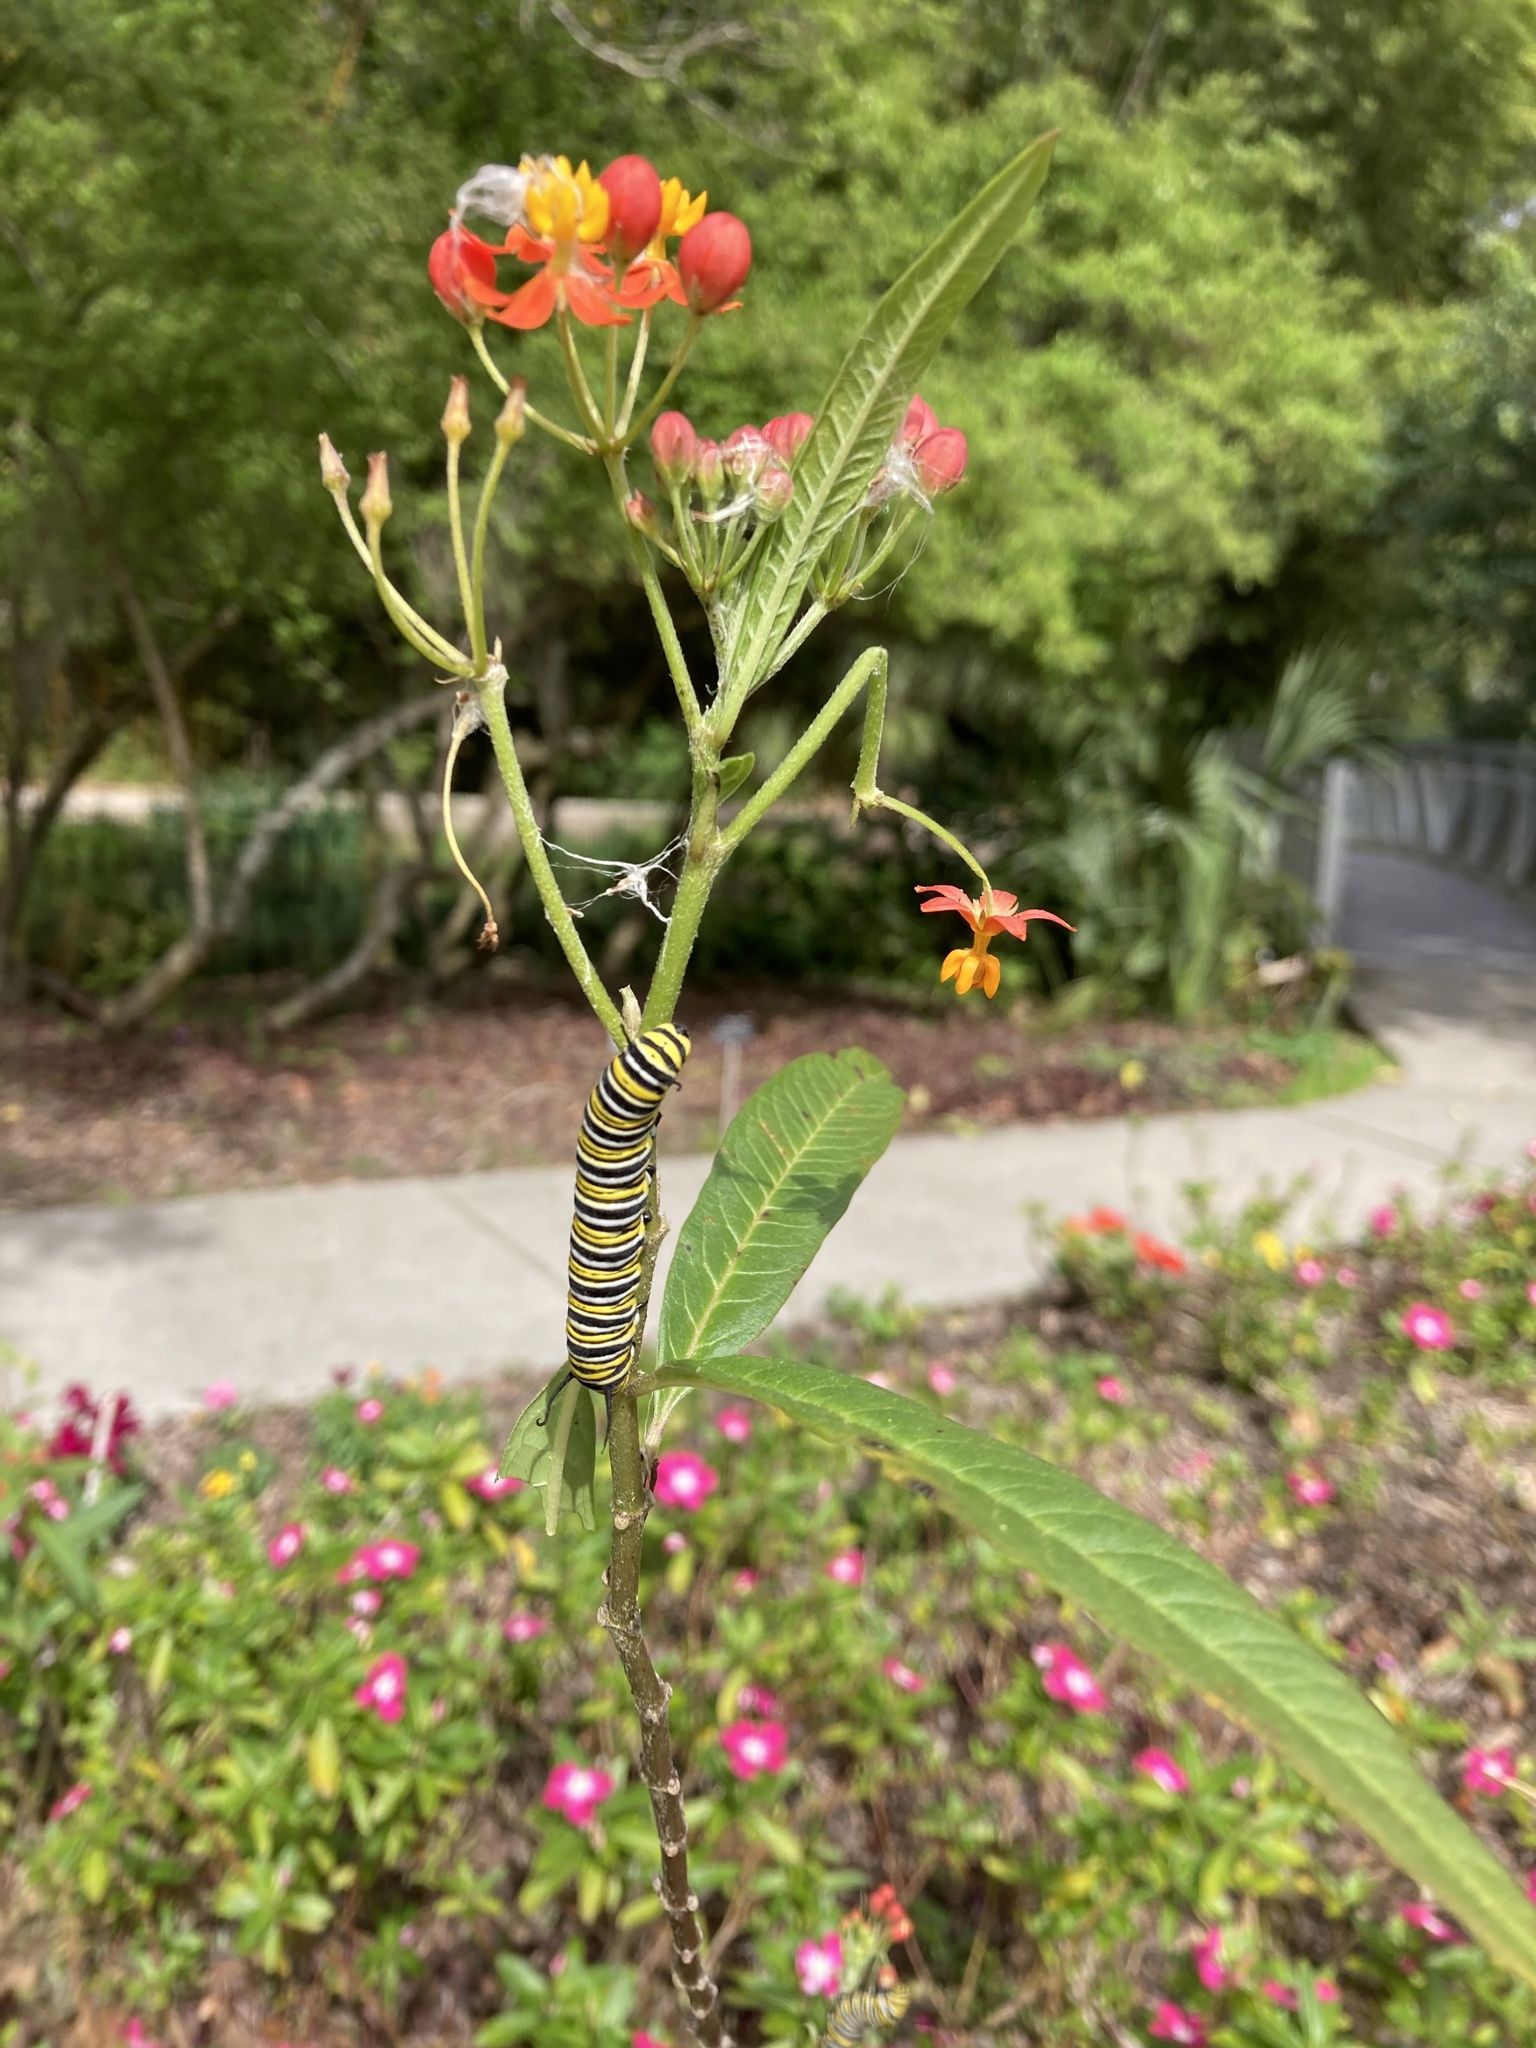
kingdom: Animalia
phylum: Arthropoda
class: Insecta
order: Lepidoptera
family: Nymphalidae
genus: Danaus
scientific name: Danaus plexippus
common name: Monarch
